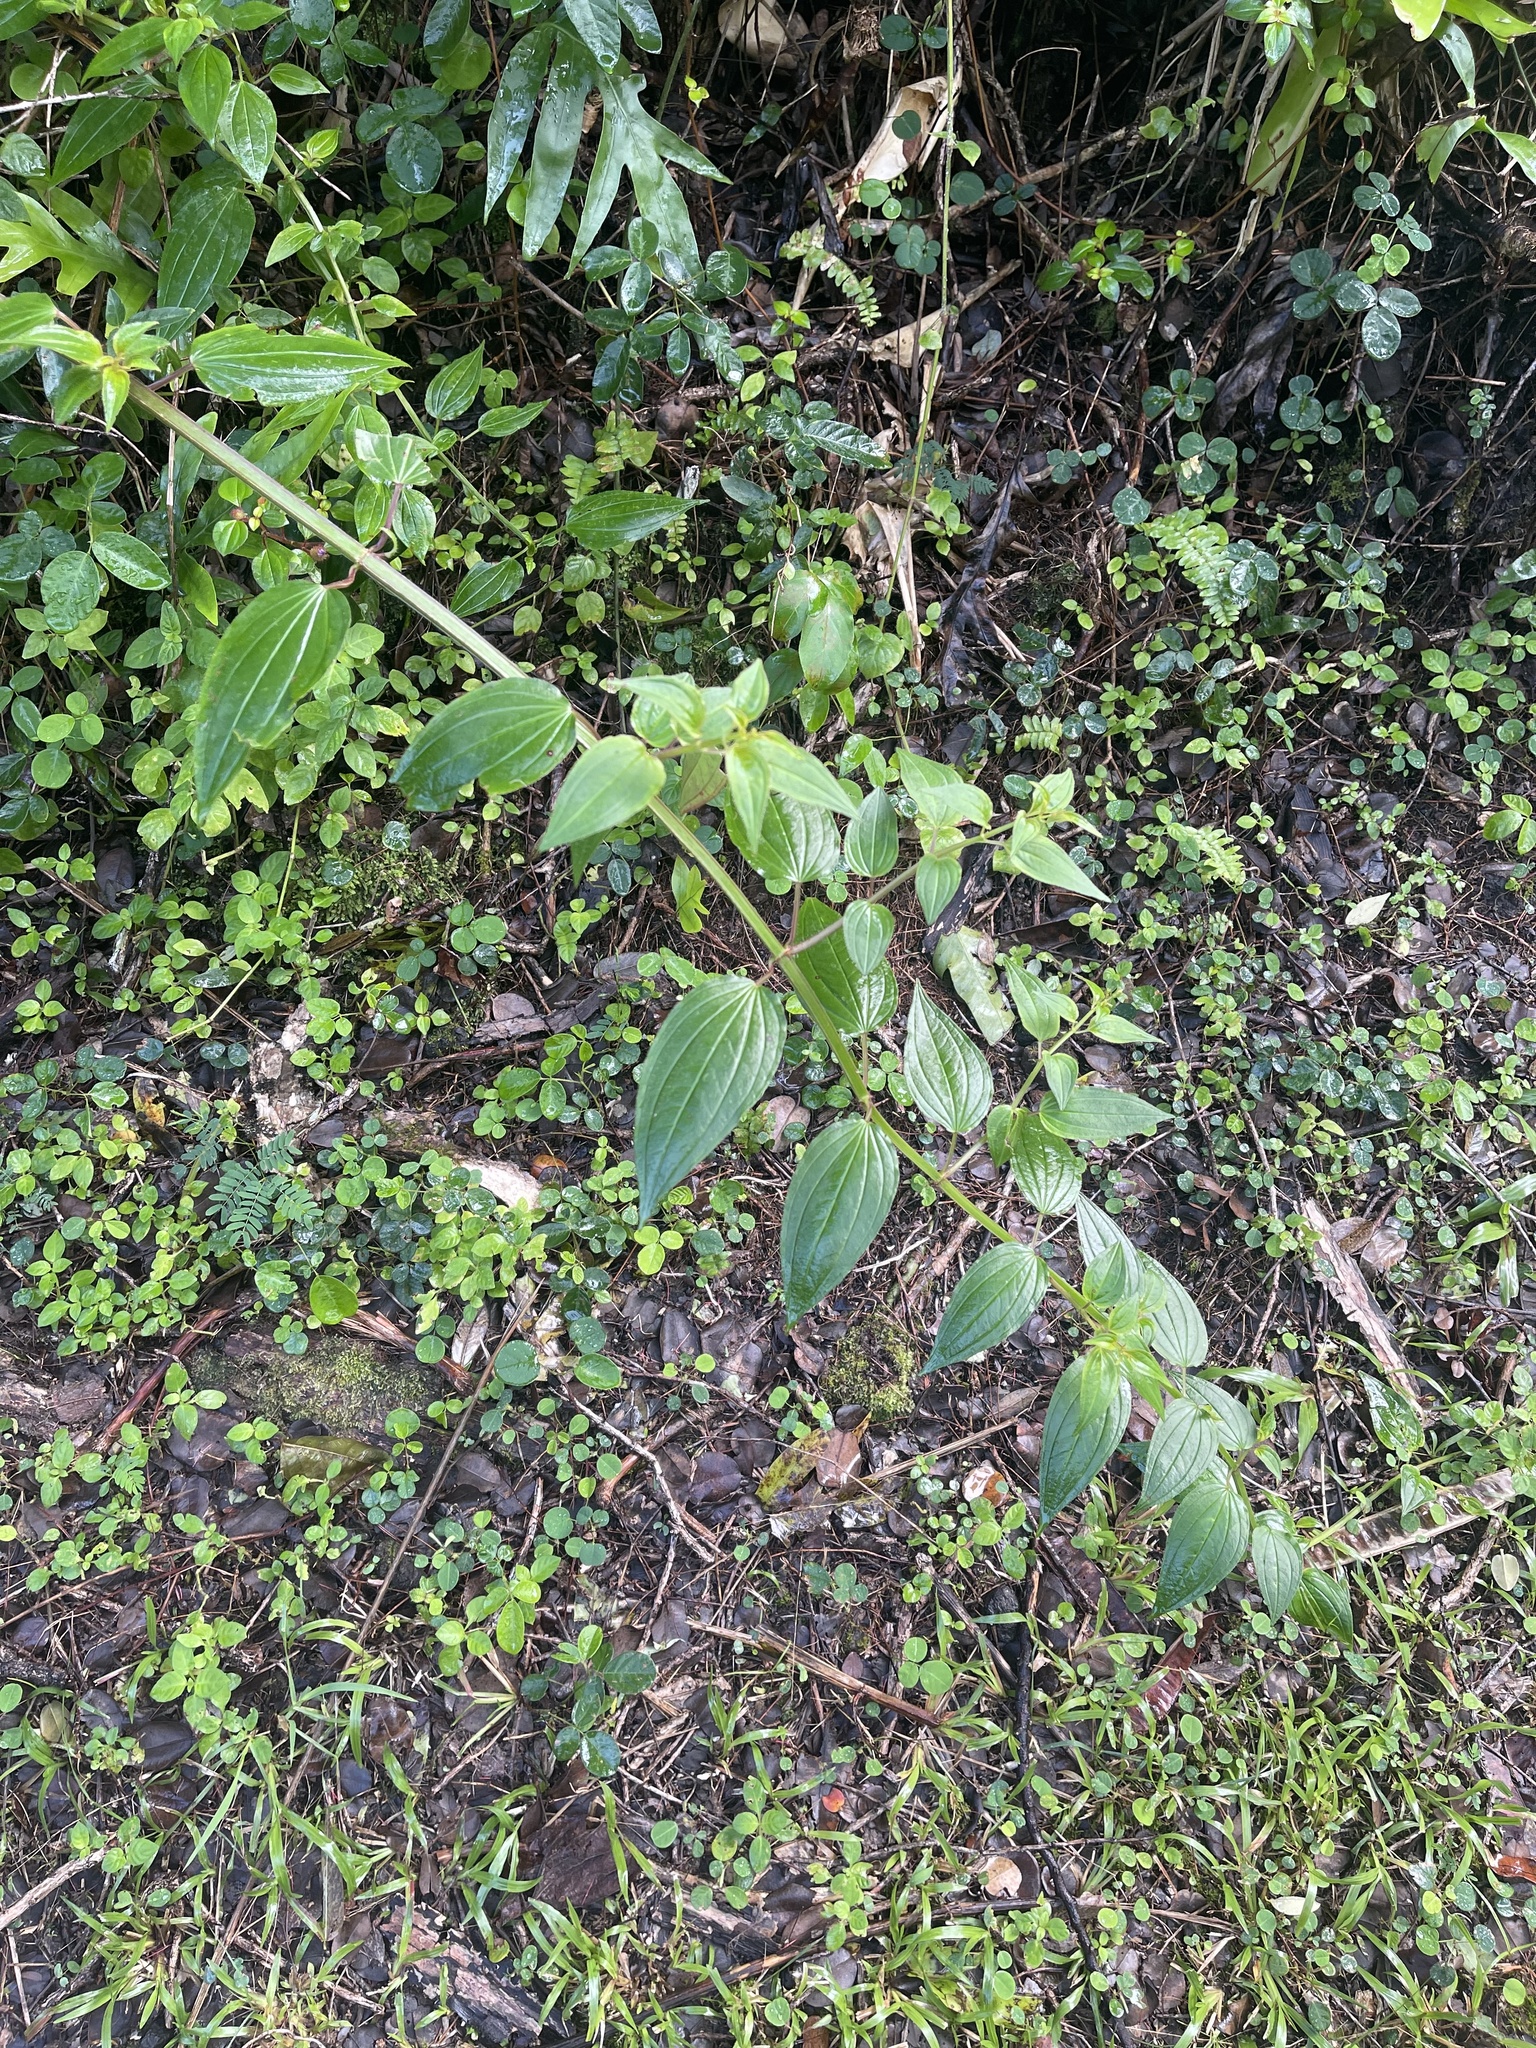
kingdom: Plantae
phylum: Tracheophyta
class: Magnoliopsida
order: Myrtales
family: Melastomataceae
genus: Arthrostemma
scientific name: Arthrostemma ciliatum
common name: Everblooming eavender
